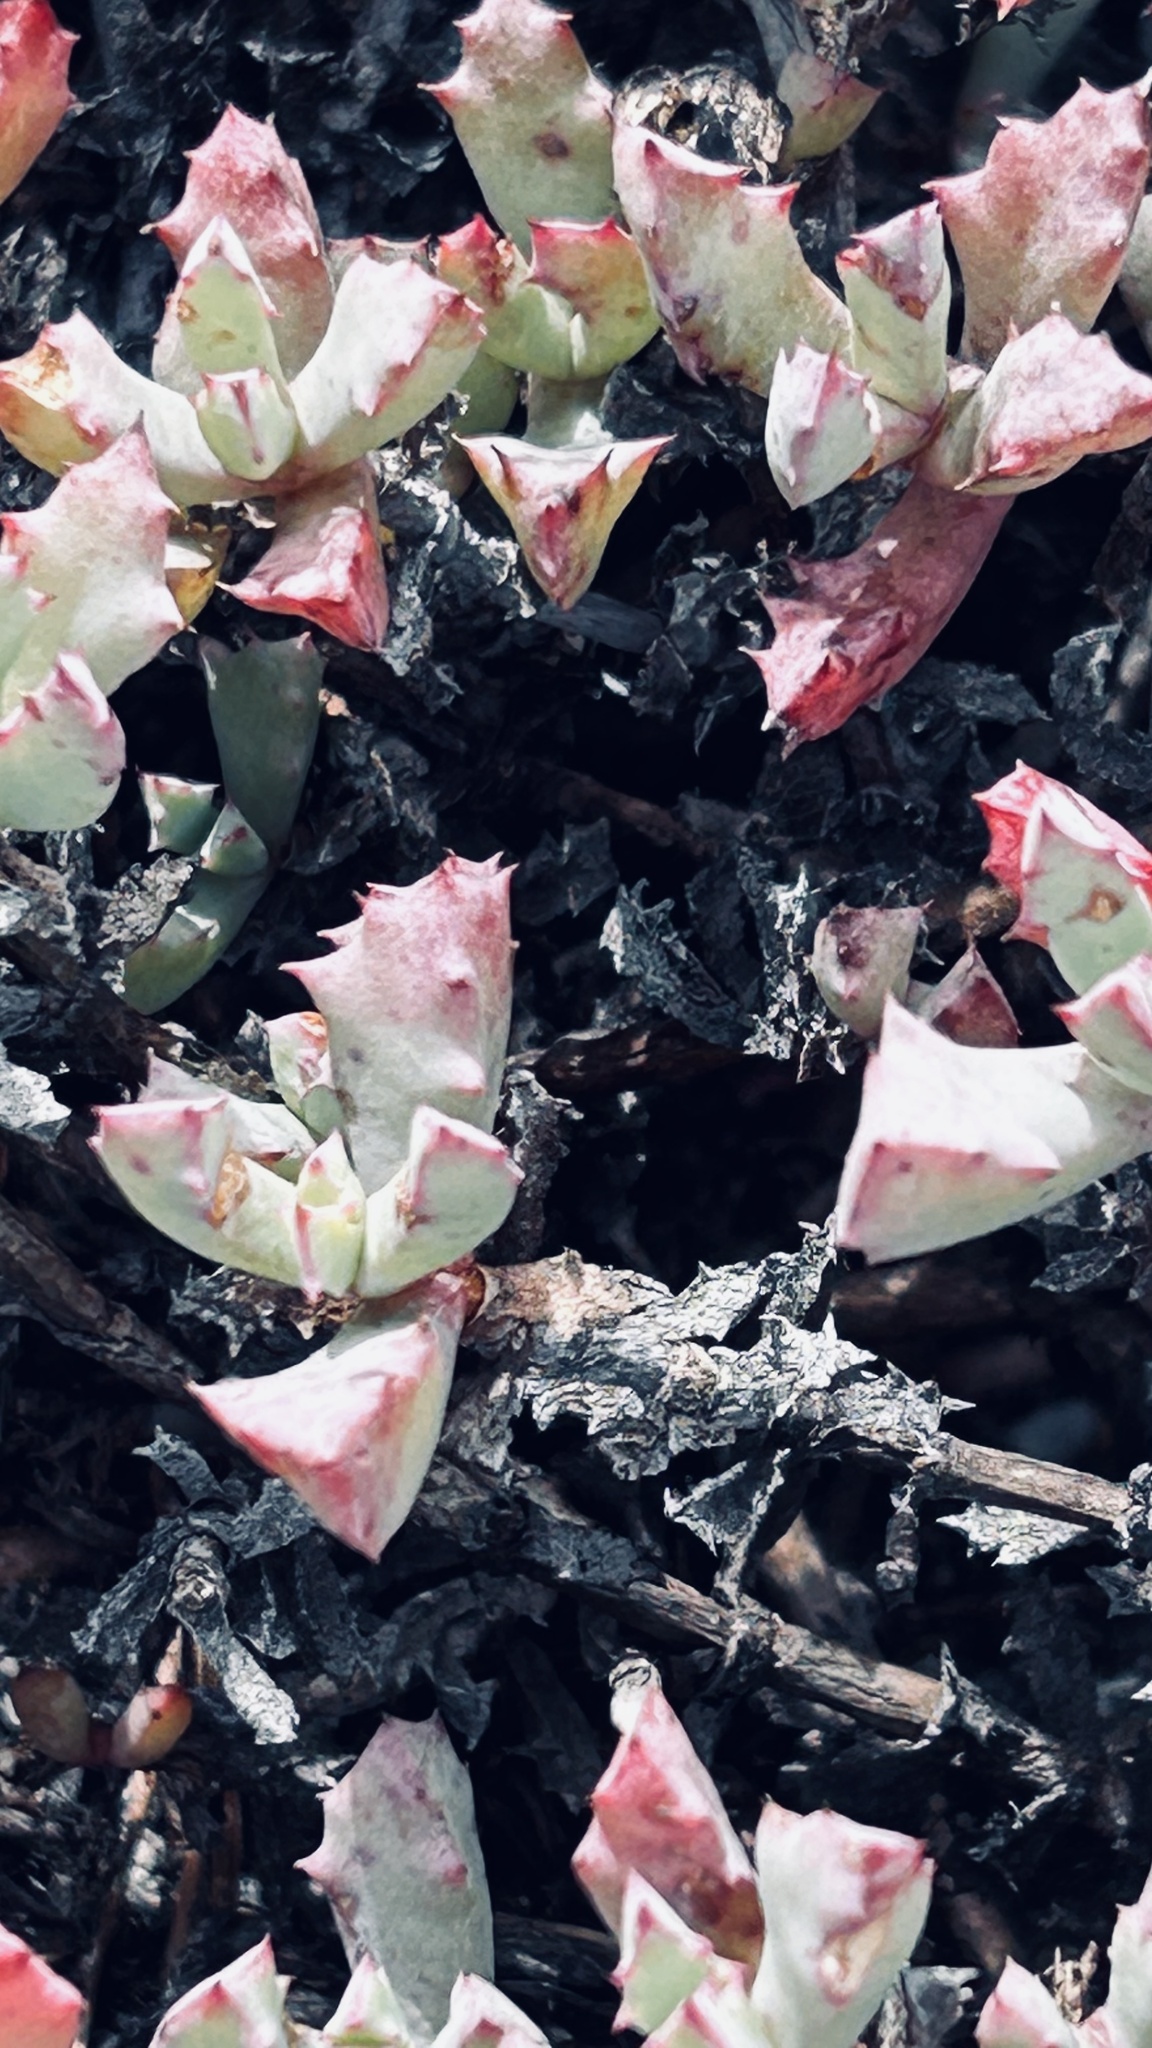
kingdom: Plantae
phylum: Tracheophyta
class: Magnoliopsida
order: Caryophyllales
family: Aizoaceae
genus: Oscularia
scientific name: Oscularia deltoides
